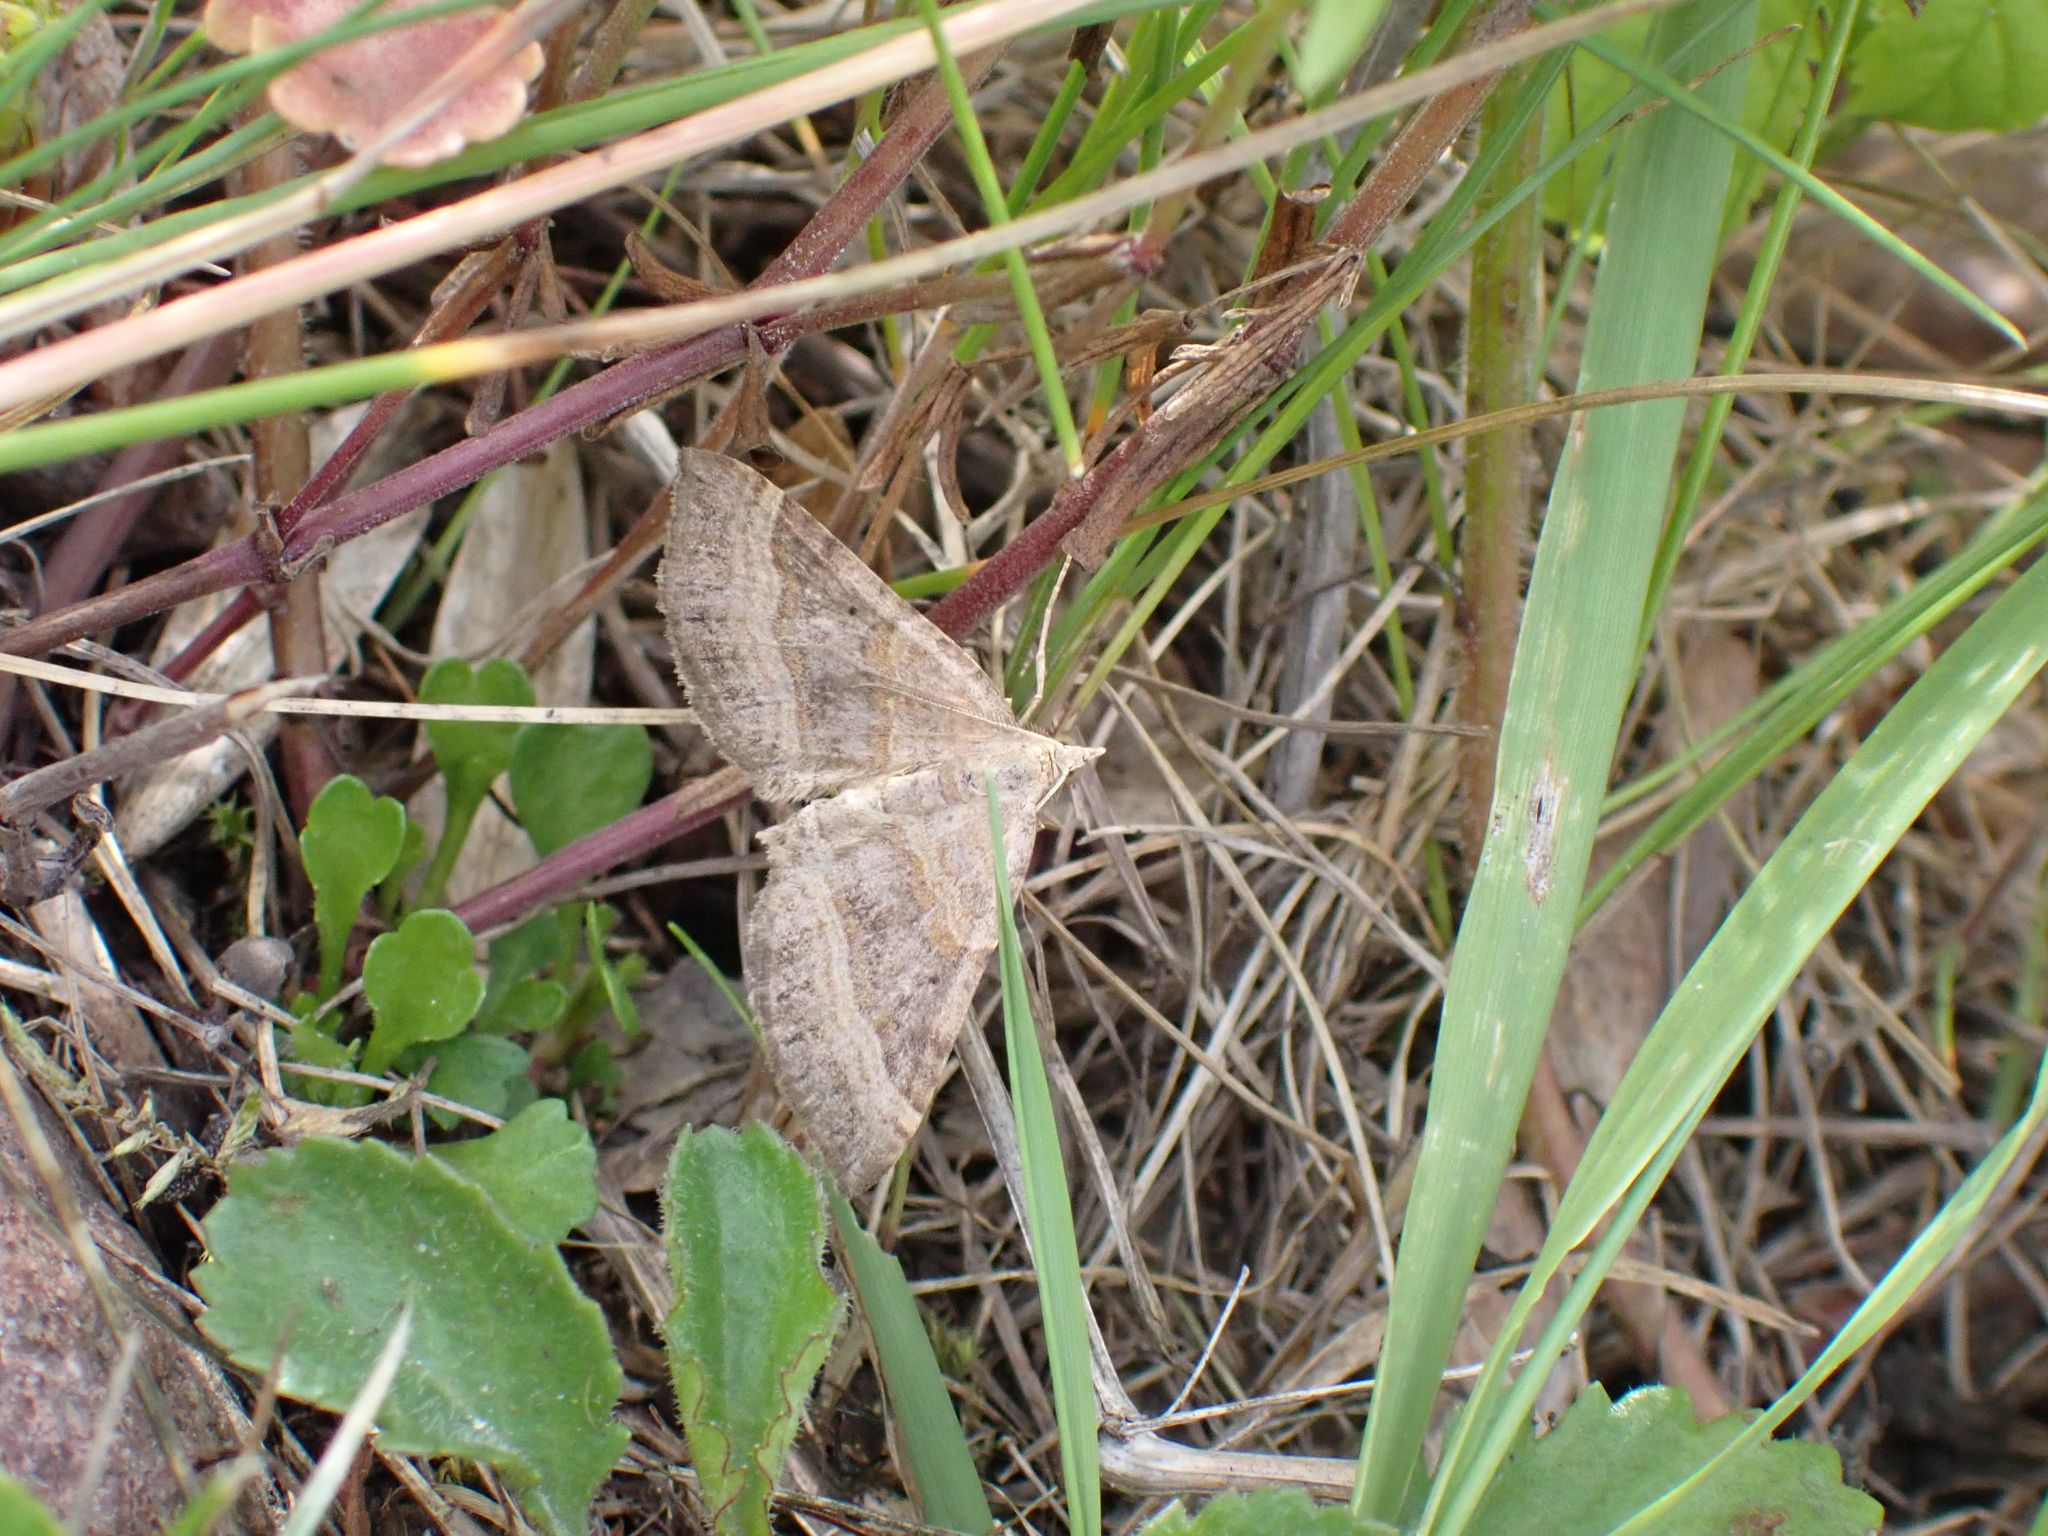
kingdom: Animalia
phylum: Arthropoda
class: Insecta
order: Lepidoptera
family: Geometridae
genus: Scotopteryx
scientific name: Scotopteryx chenopodiata
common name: Shaded broad-bar
